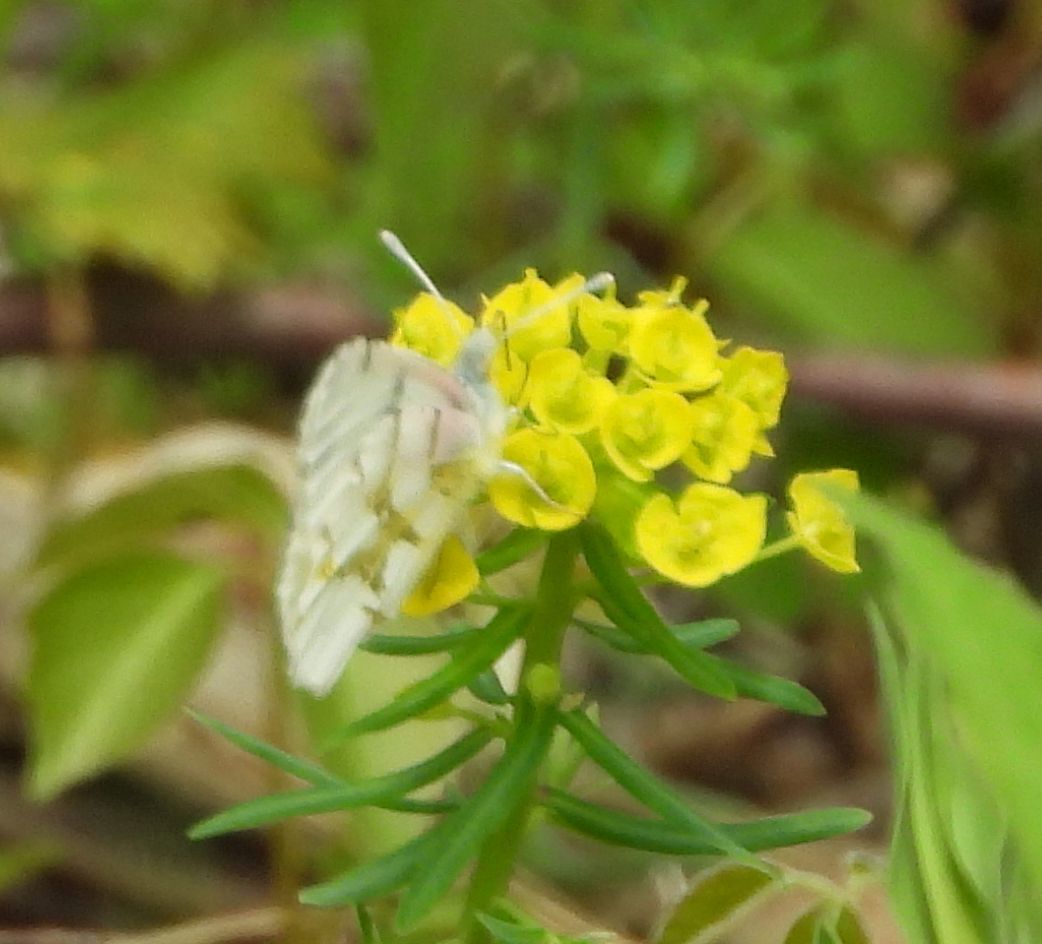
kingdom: Animalia
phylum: Arthropoda
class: Insecta
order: Lepidoptera
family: Pieridae
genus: Euchloe
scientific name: Euchloe olympia
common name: Olympia
